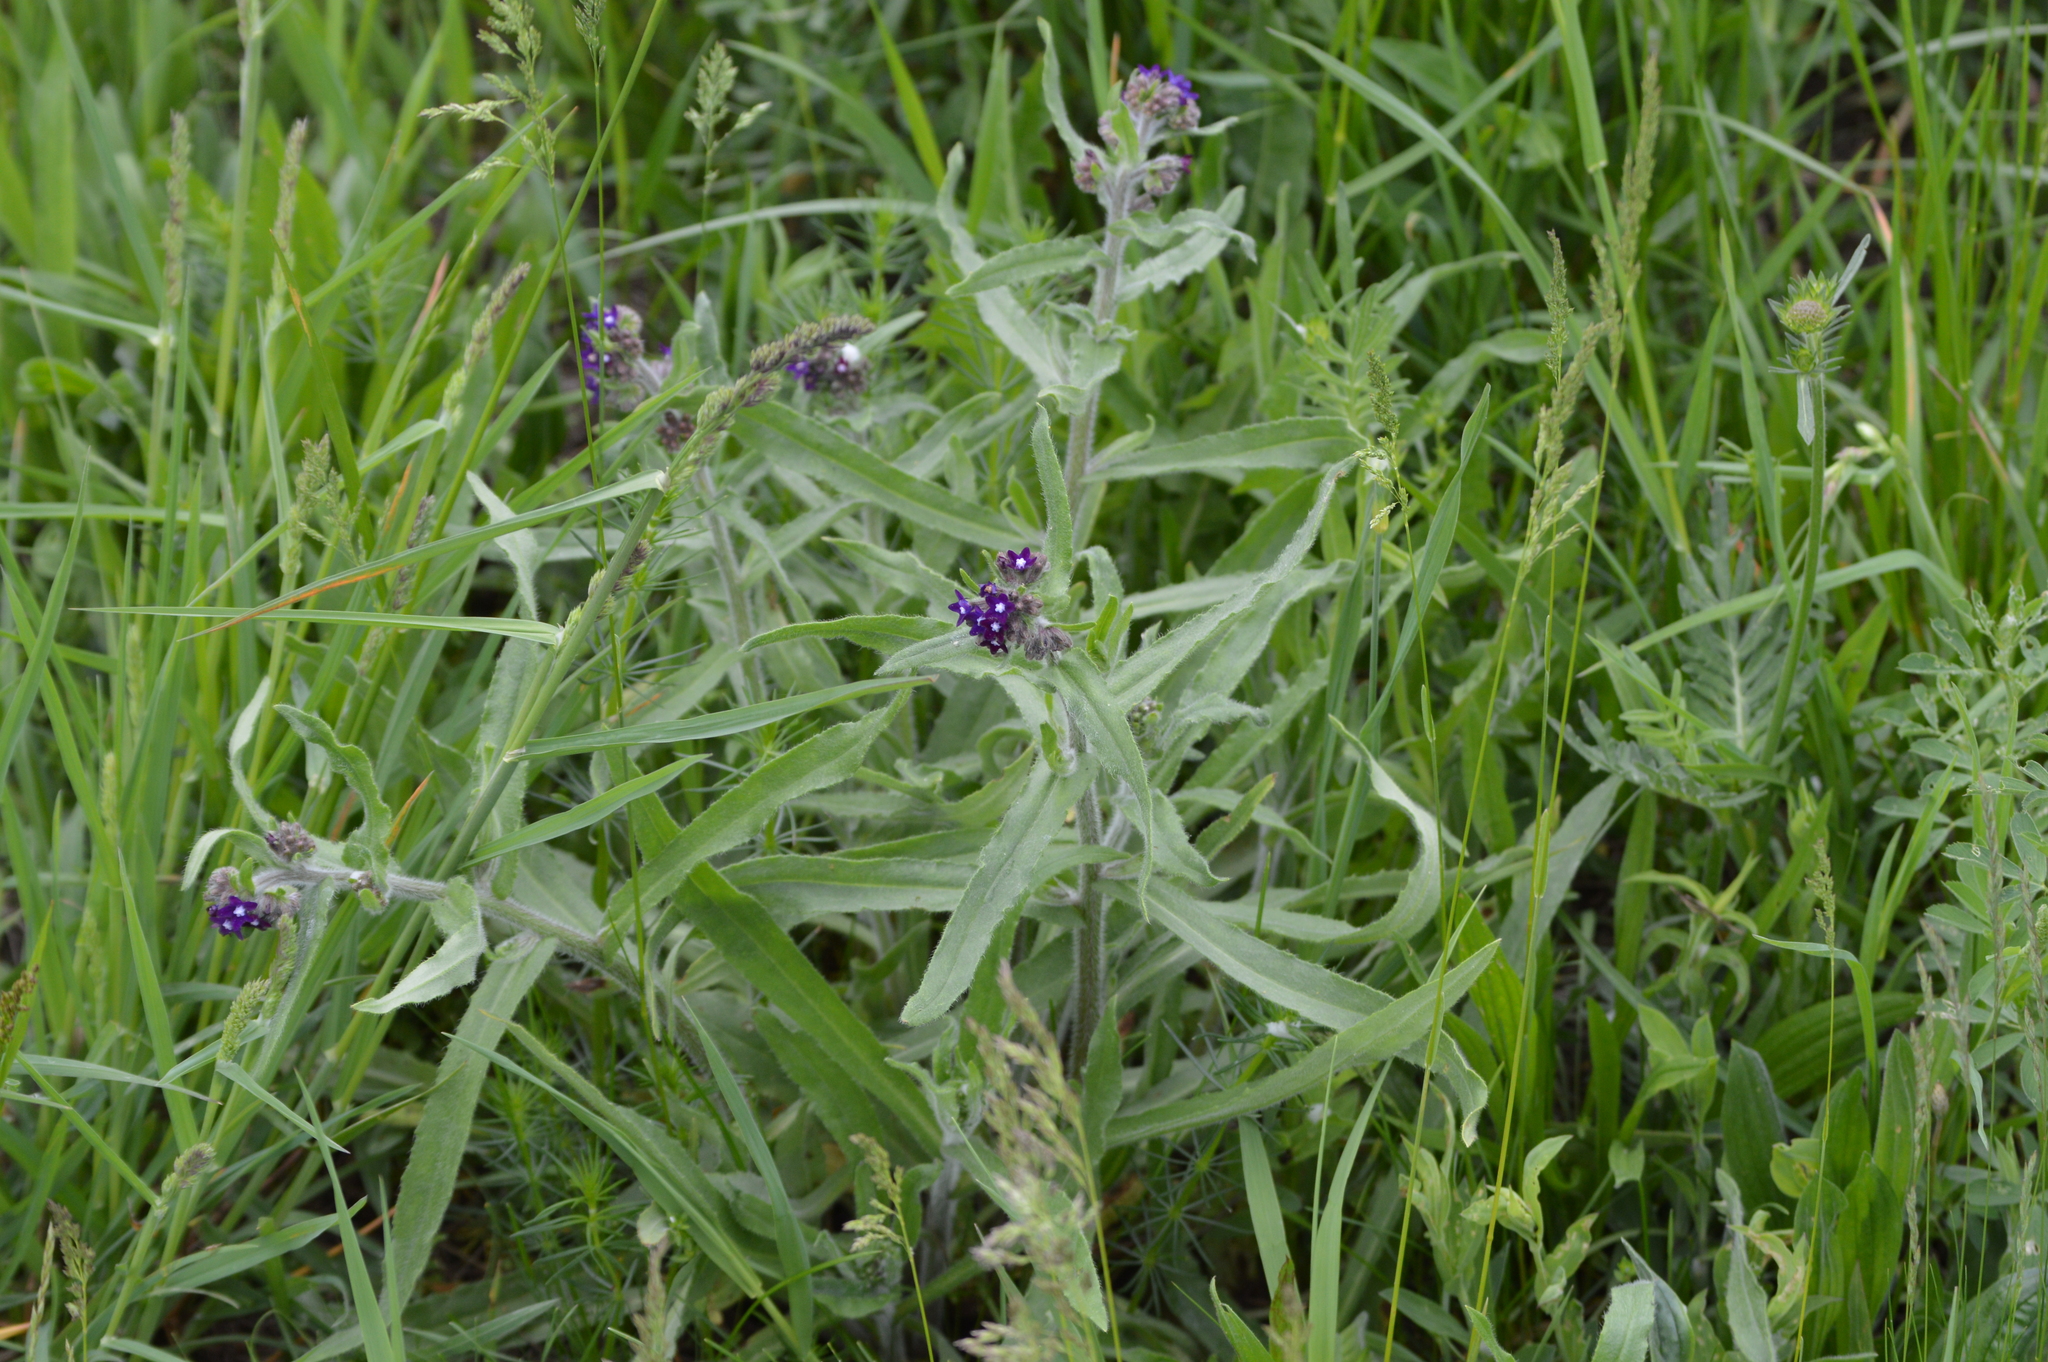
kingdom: Plantae
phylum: Tracheophyta
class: Magnoliopsida
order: Boraginales
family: Boraginaceae
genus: Anchusa
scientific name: Anchusa officinalis
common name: Alkanet
